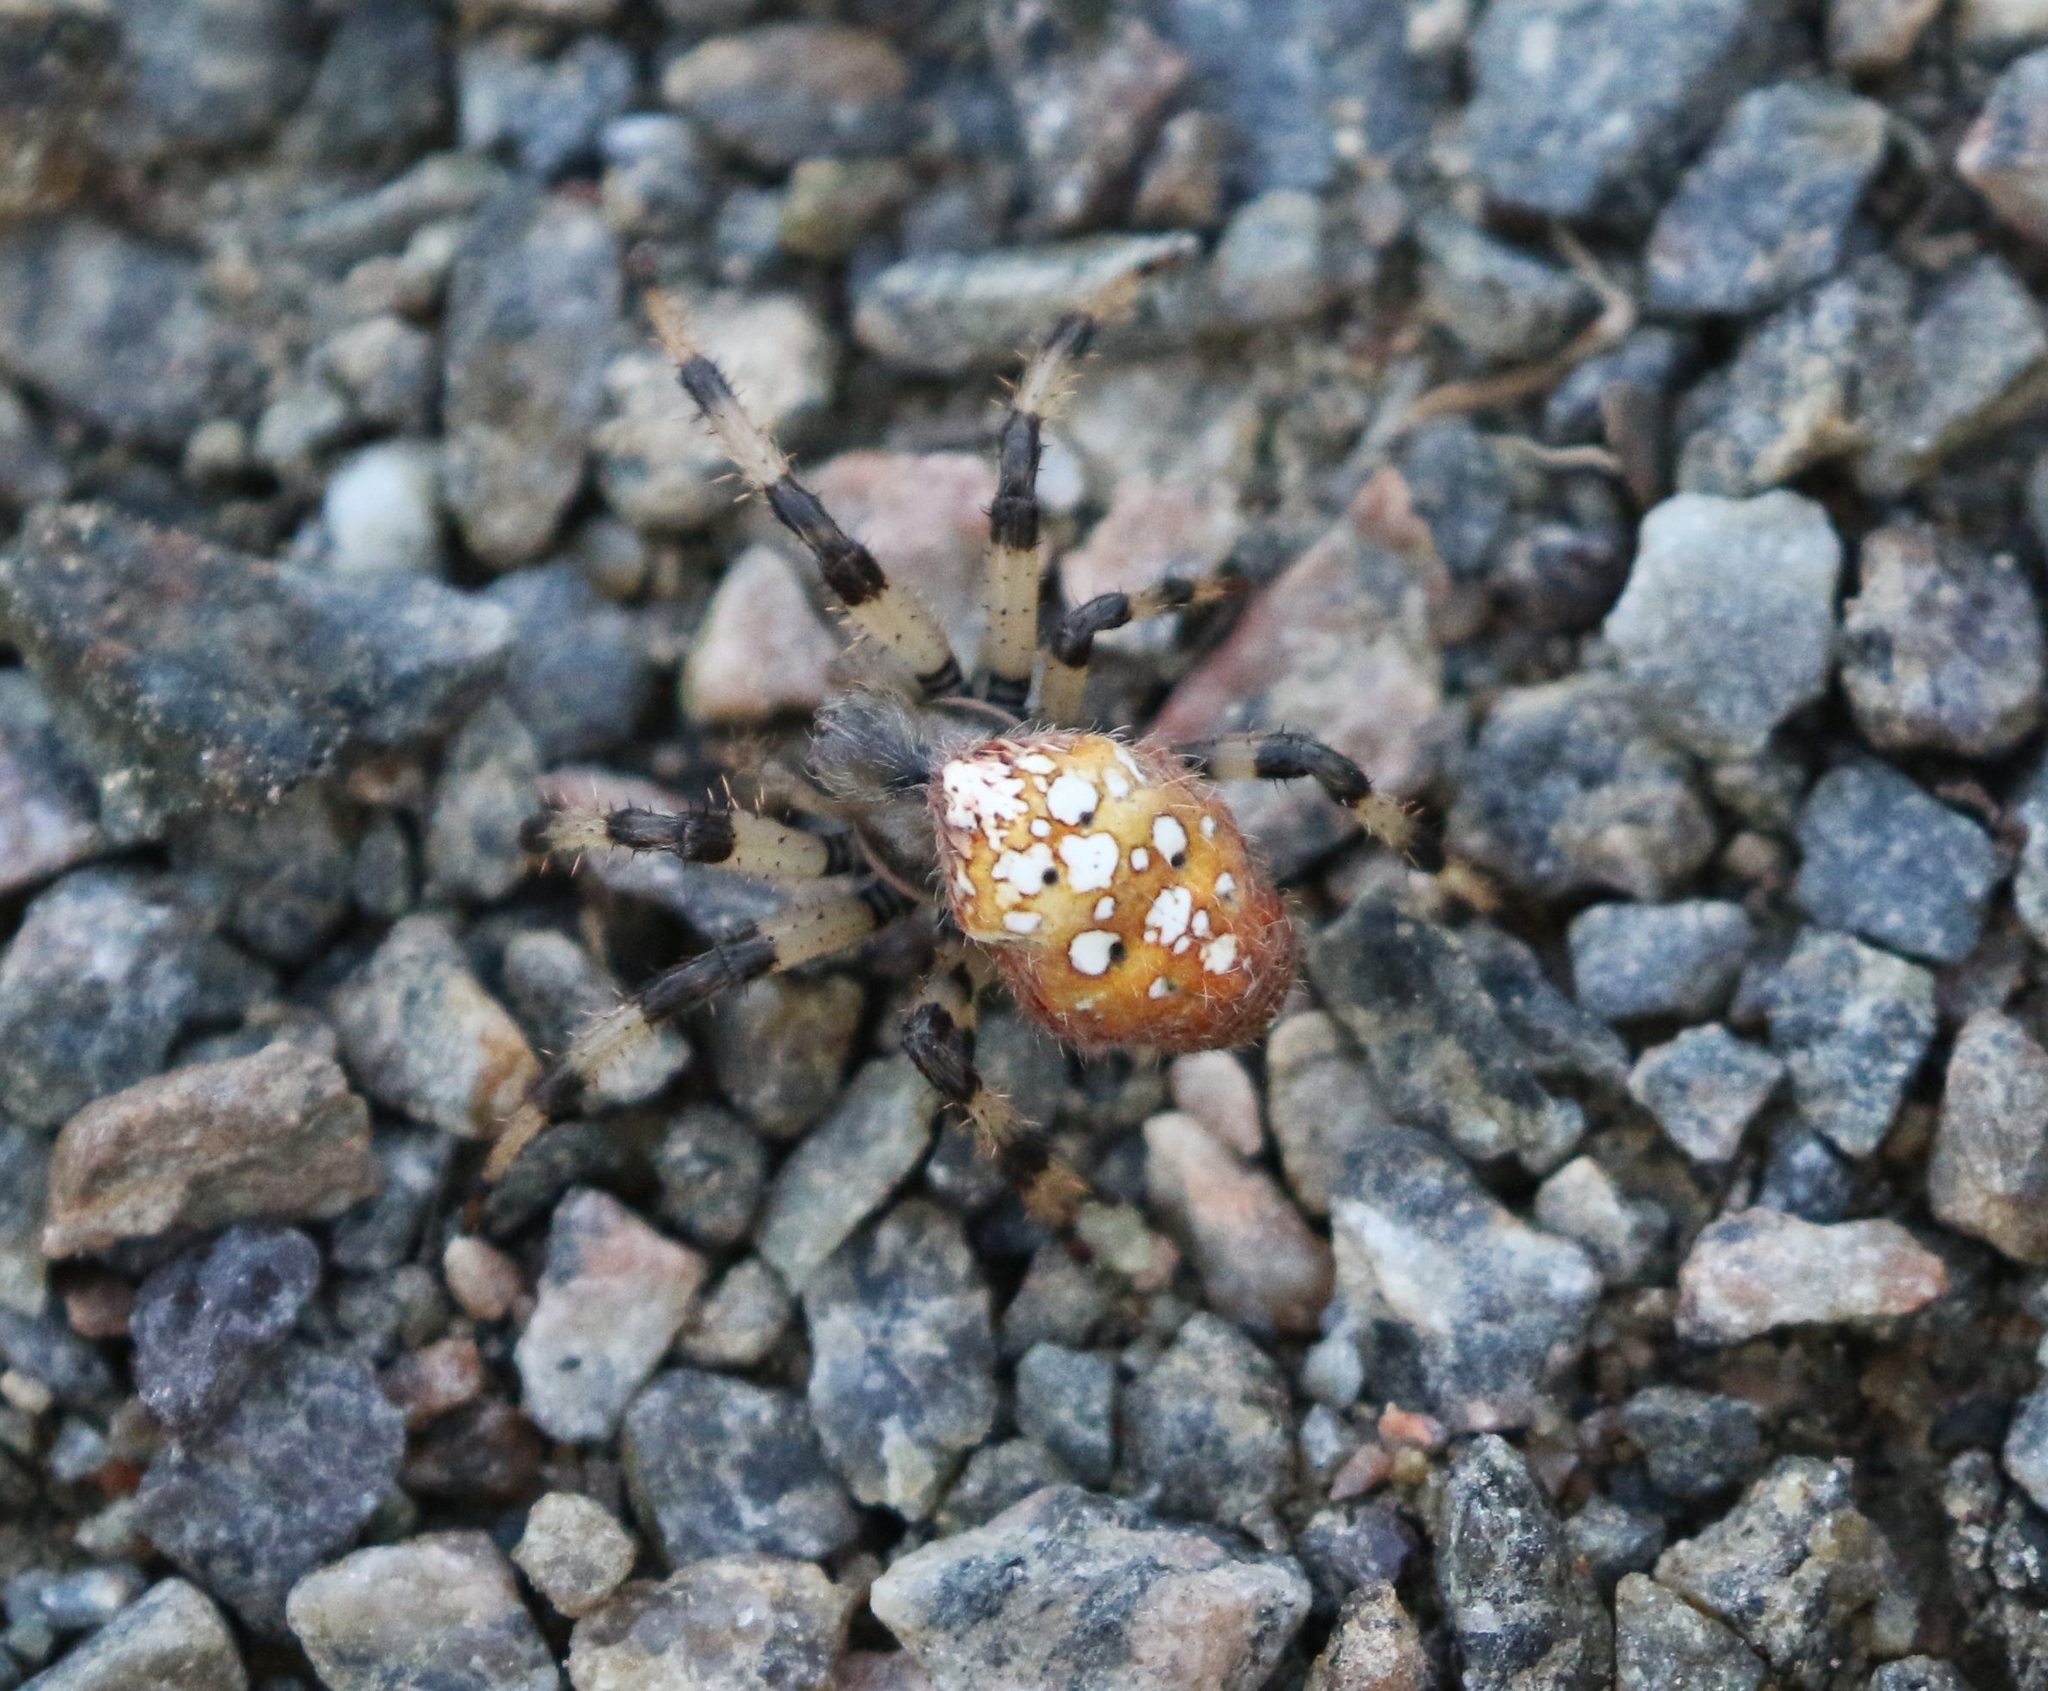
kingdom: Animalia
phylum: Arthropoda
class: Arachnida
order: Araneae
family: Araneidae
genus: Araneus
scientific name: Araneus trifolium
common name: Shamrock orbweaver
